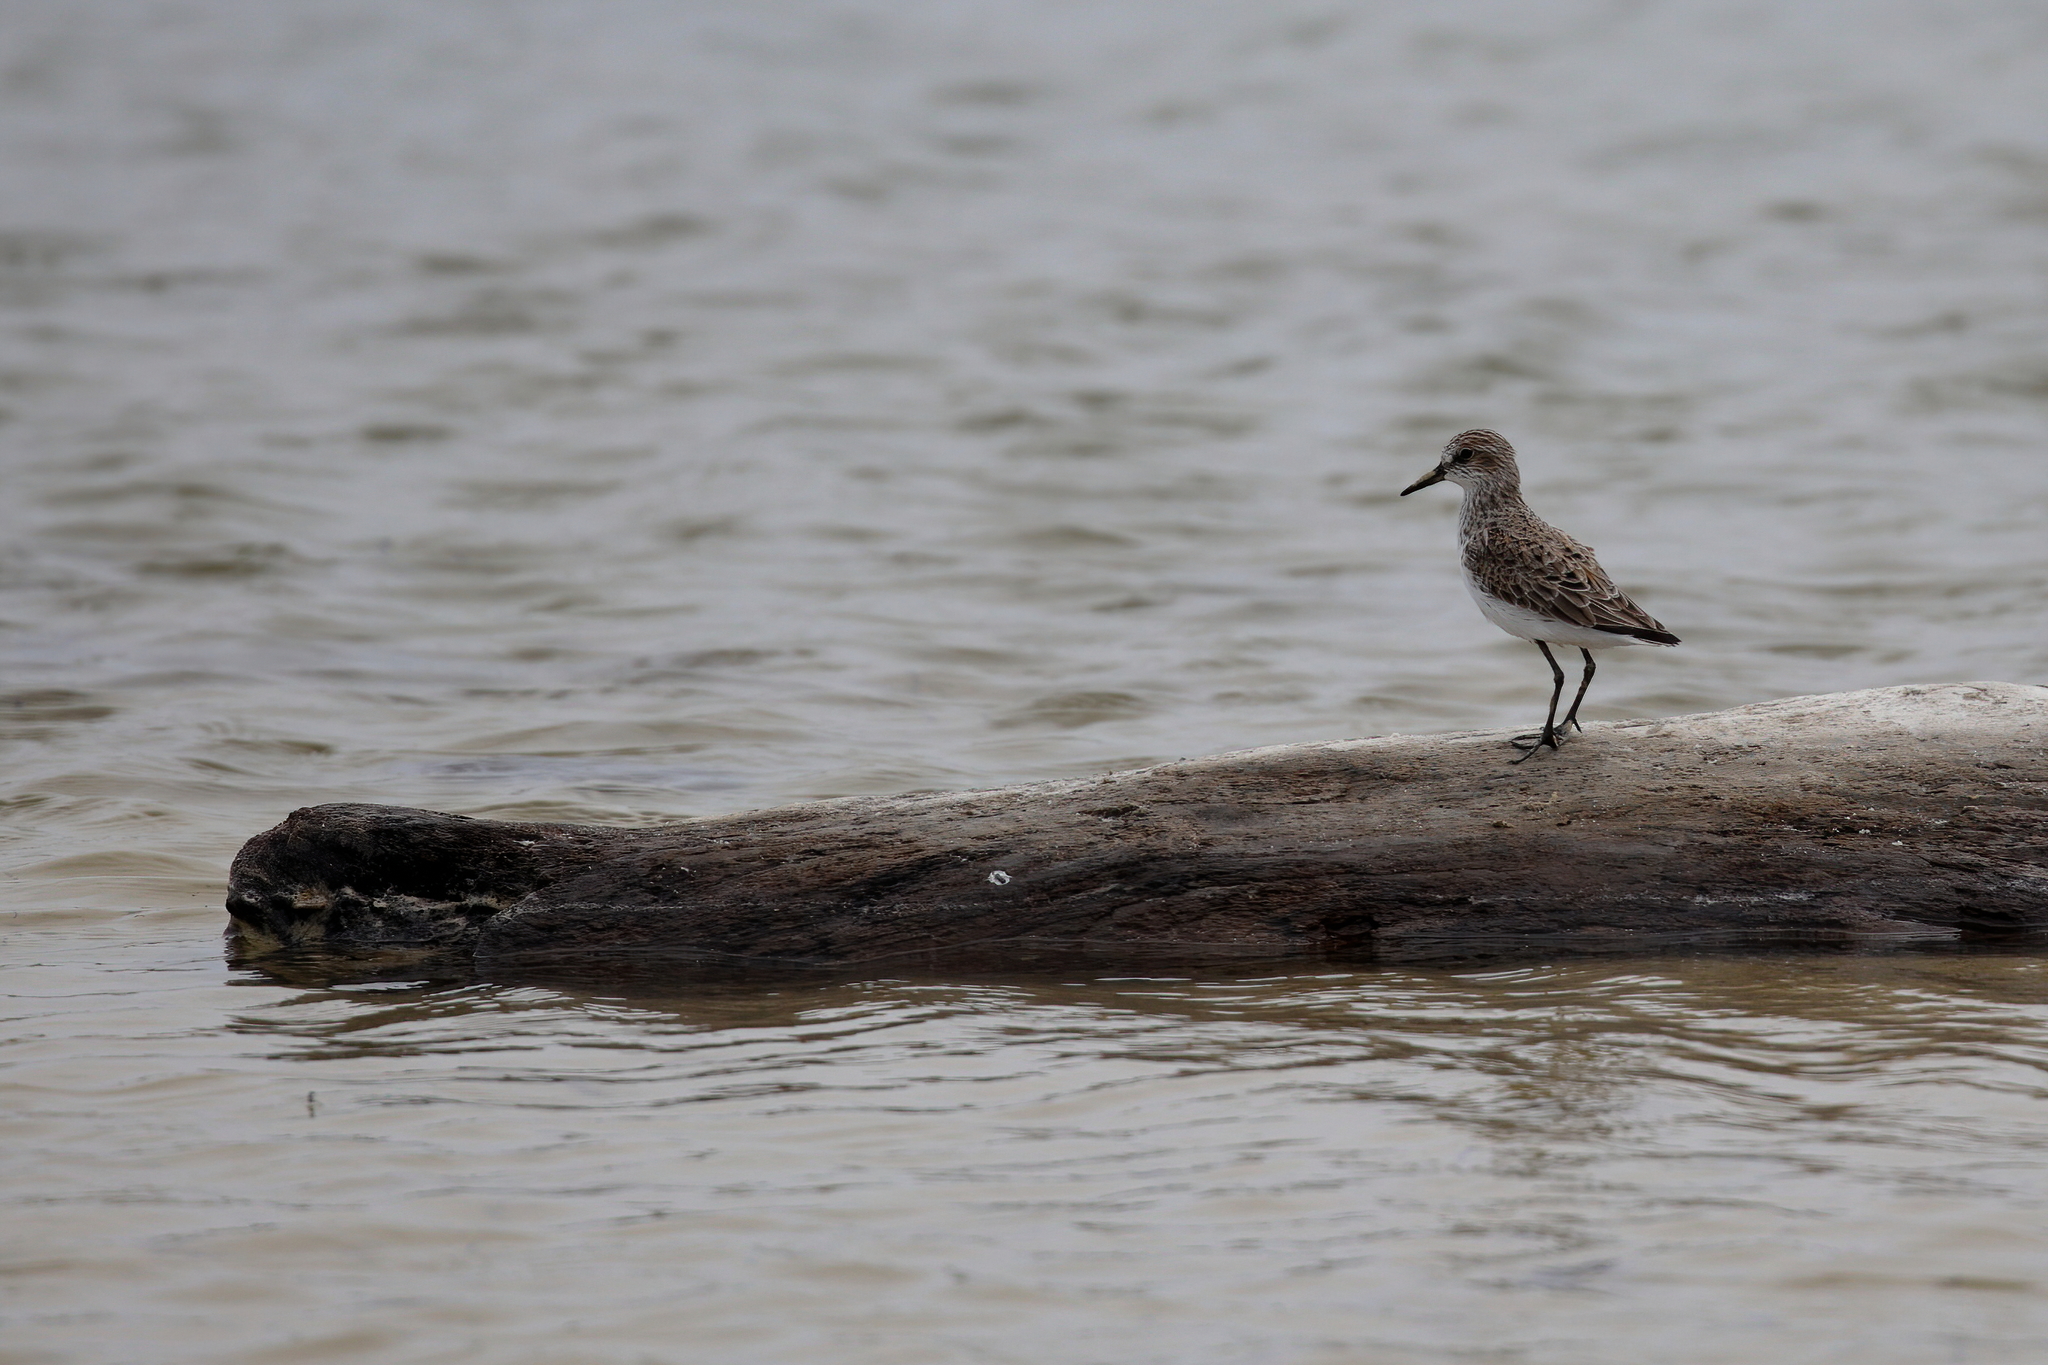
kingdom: Animalia
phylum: Chordata
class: Aves
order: Charadriiformes
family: Scolopacidae
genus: Calidris
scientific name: Calidris pusilla
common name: Semipalmated sandpiper
